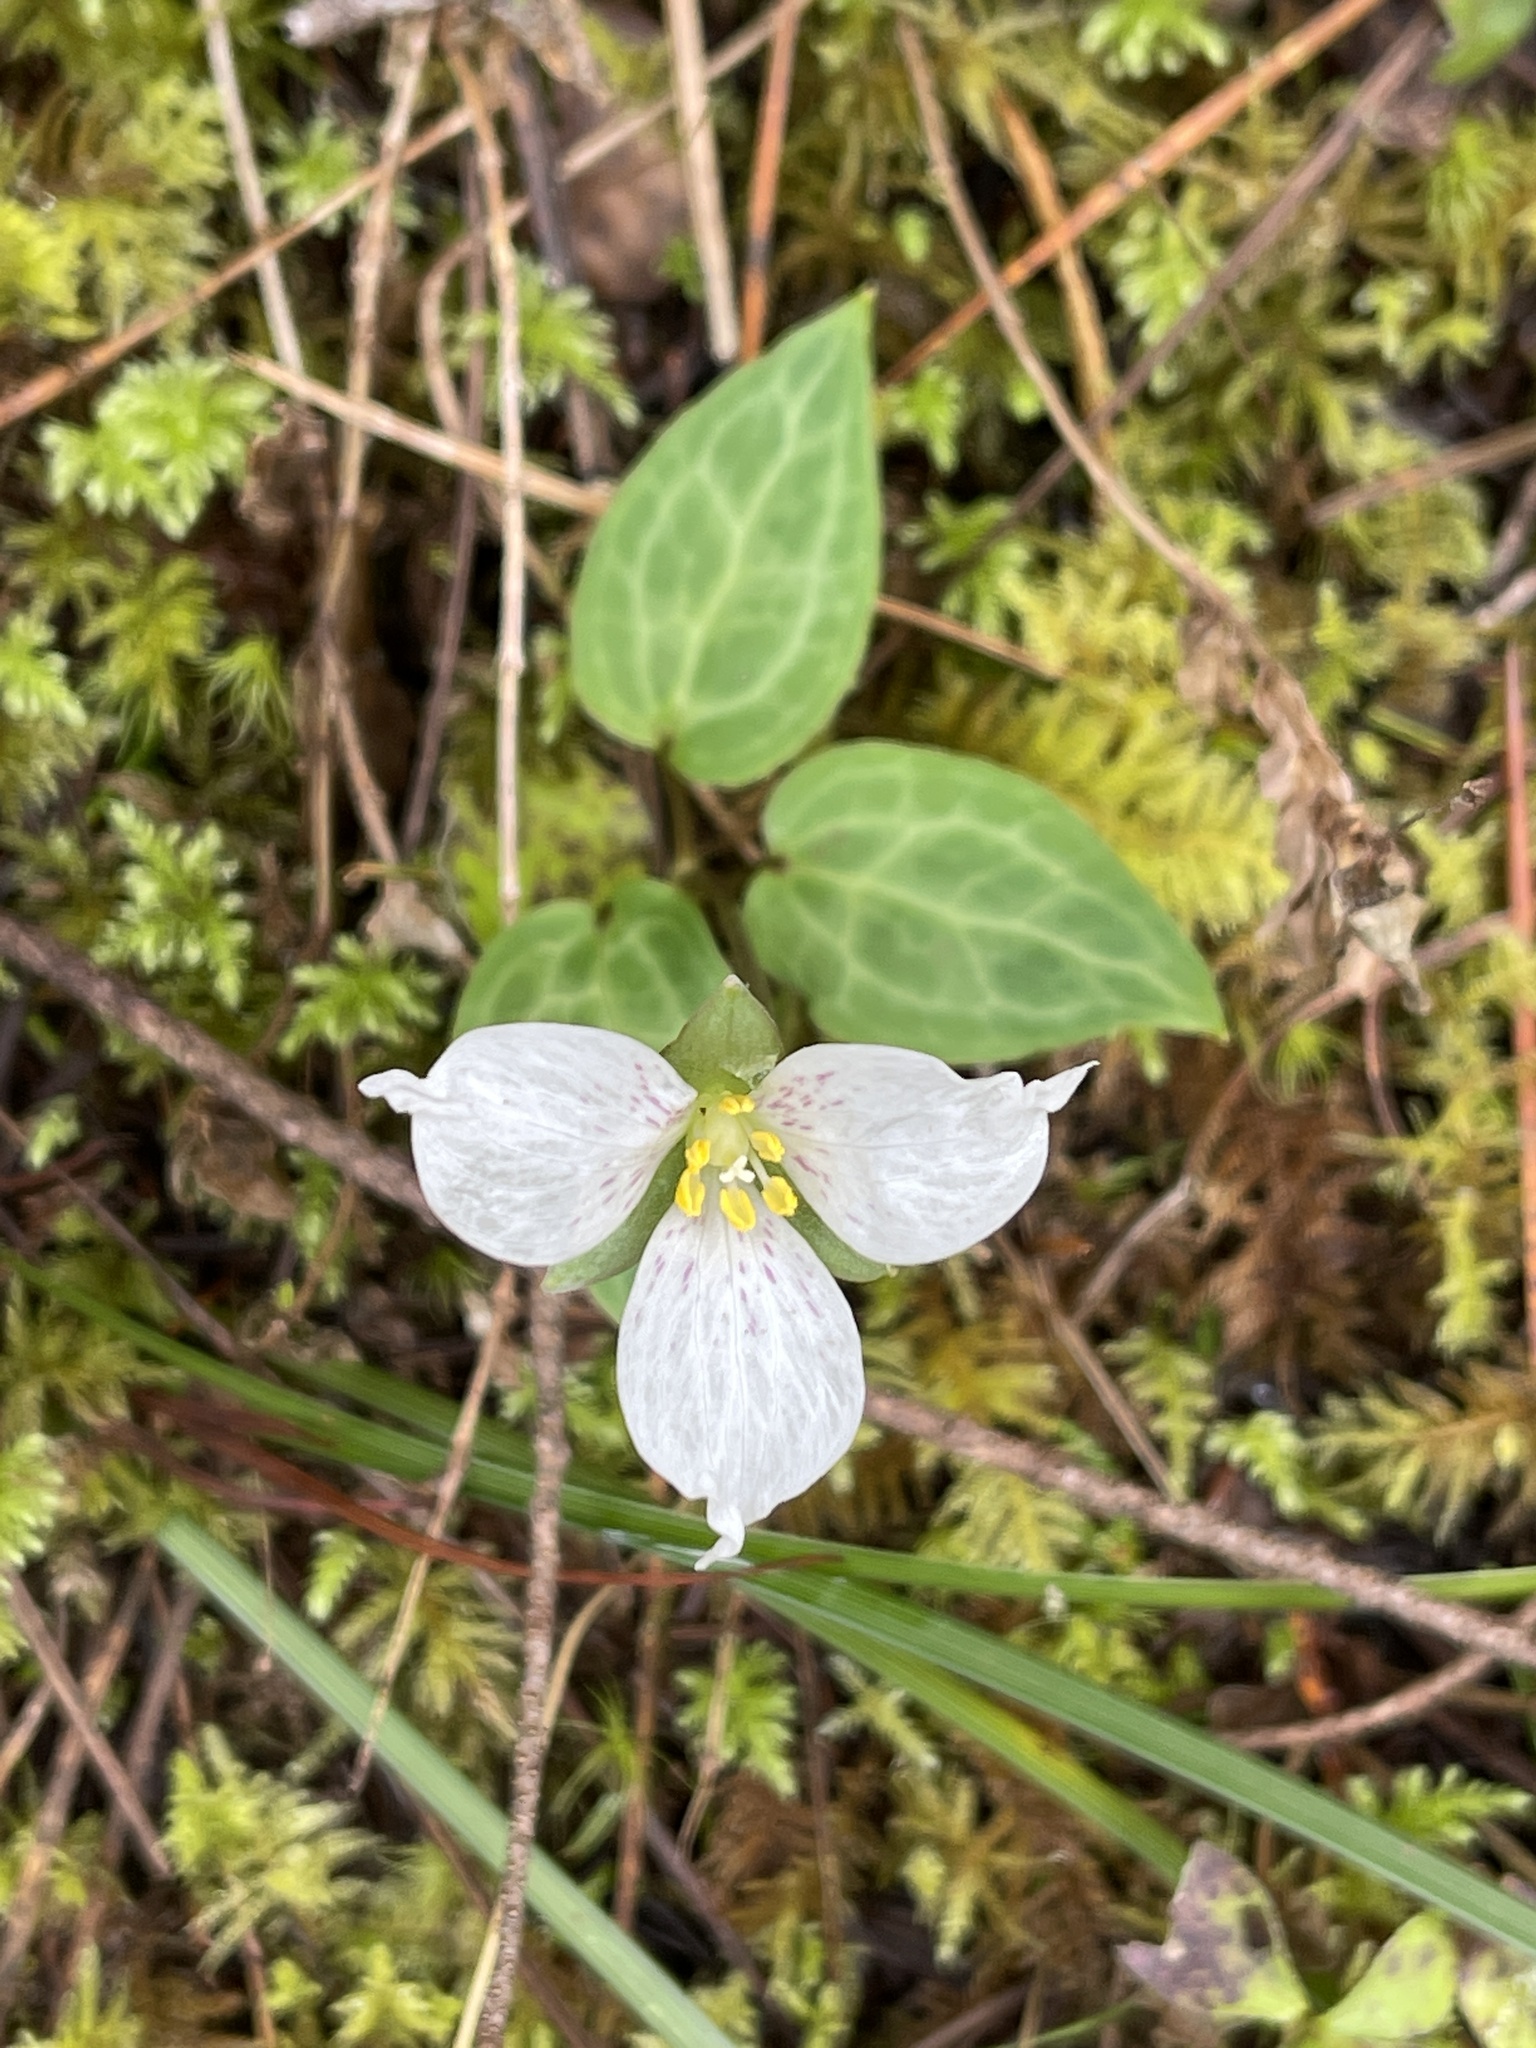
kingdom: Plantae
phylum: Tracheophyta
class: Liliopsida
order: Liliales
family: Melanthiaceae
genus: Pseudotrillium
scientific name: Pseudotrillium rivale
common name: Brook wakerobin
